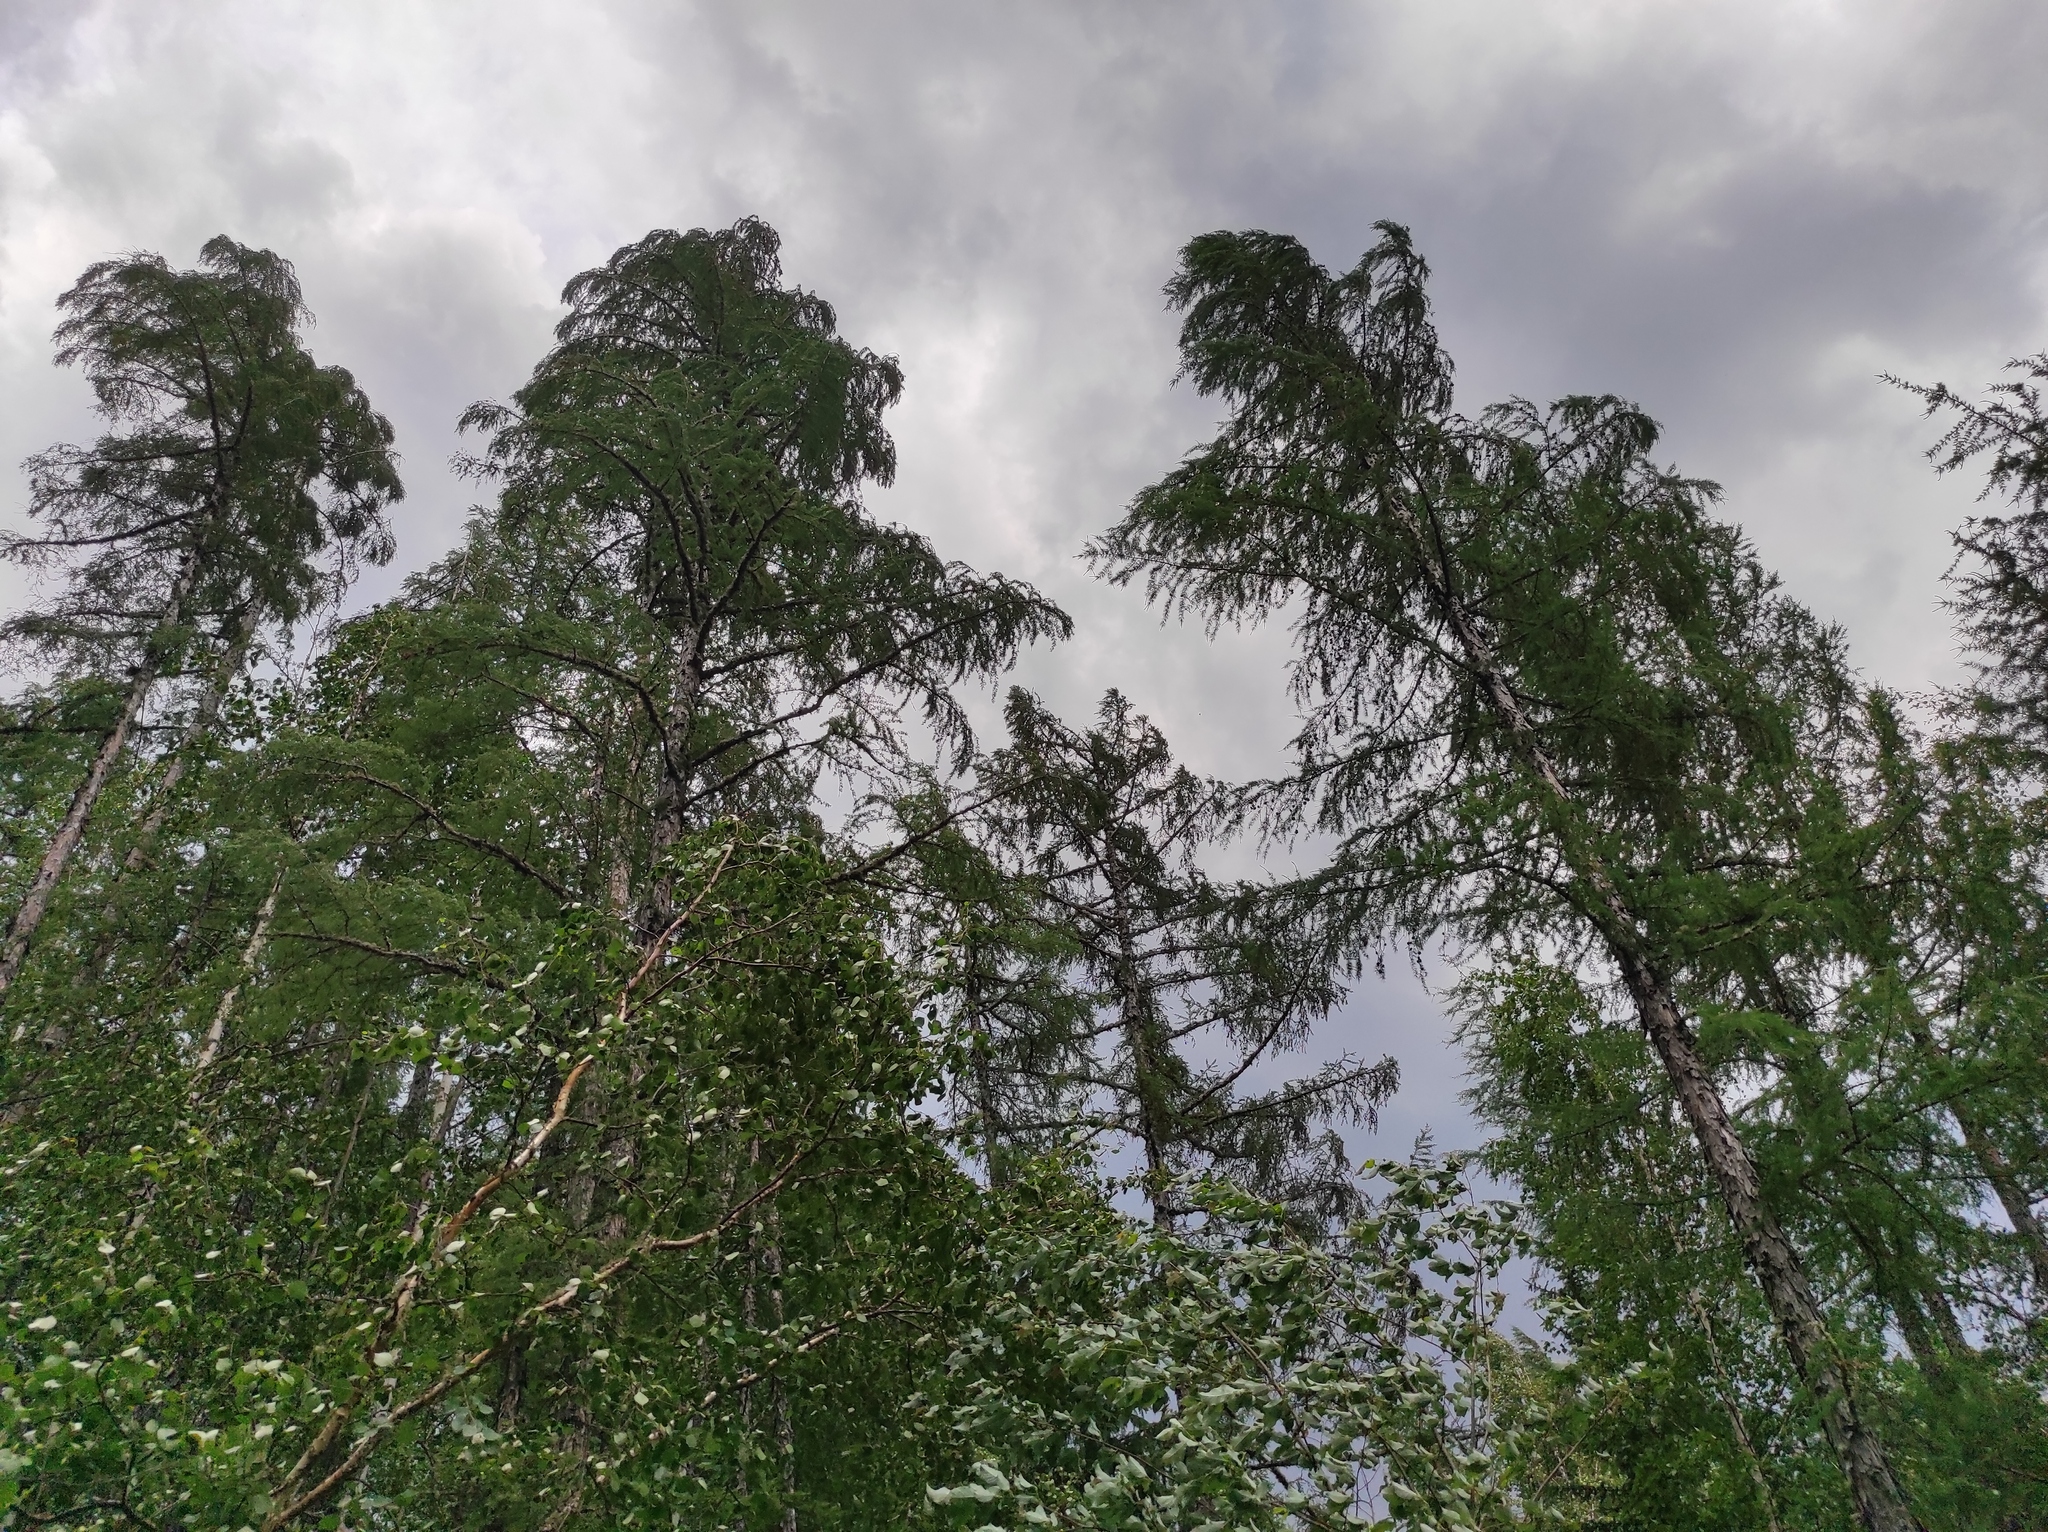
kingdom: Plantae
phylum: Tracheophyta
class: Pinopsida
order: Pinales
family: Pinaceae
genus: Larix
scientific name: Larix gmelinii
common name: Dahurian larch
